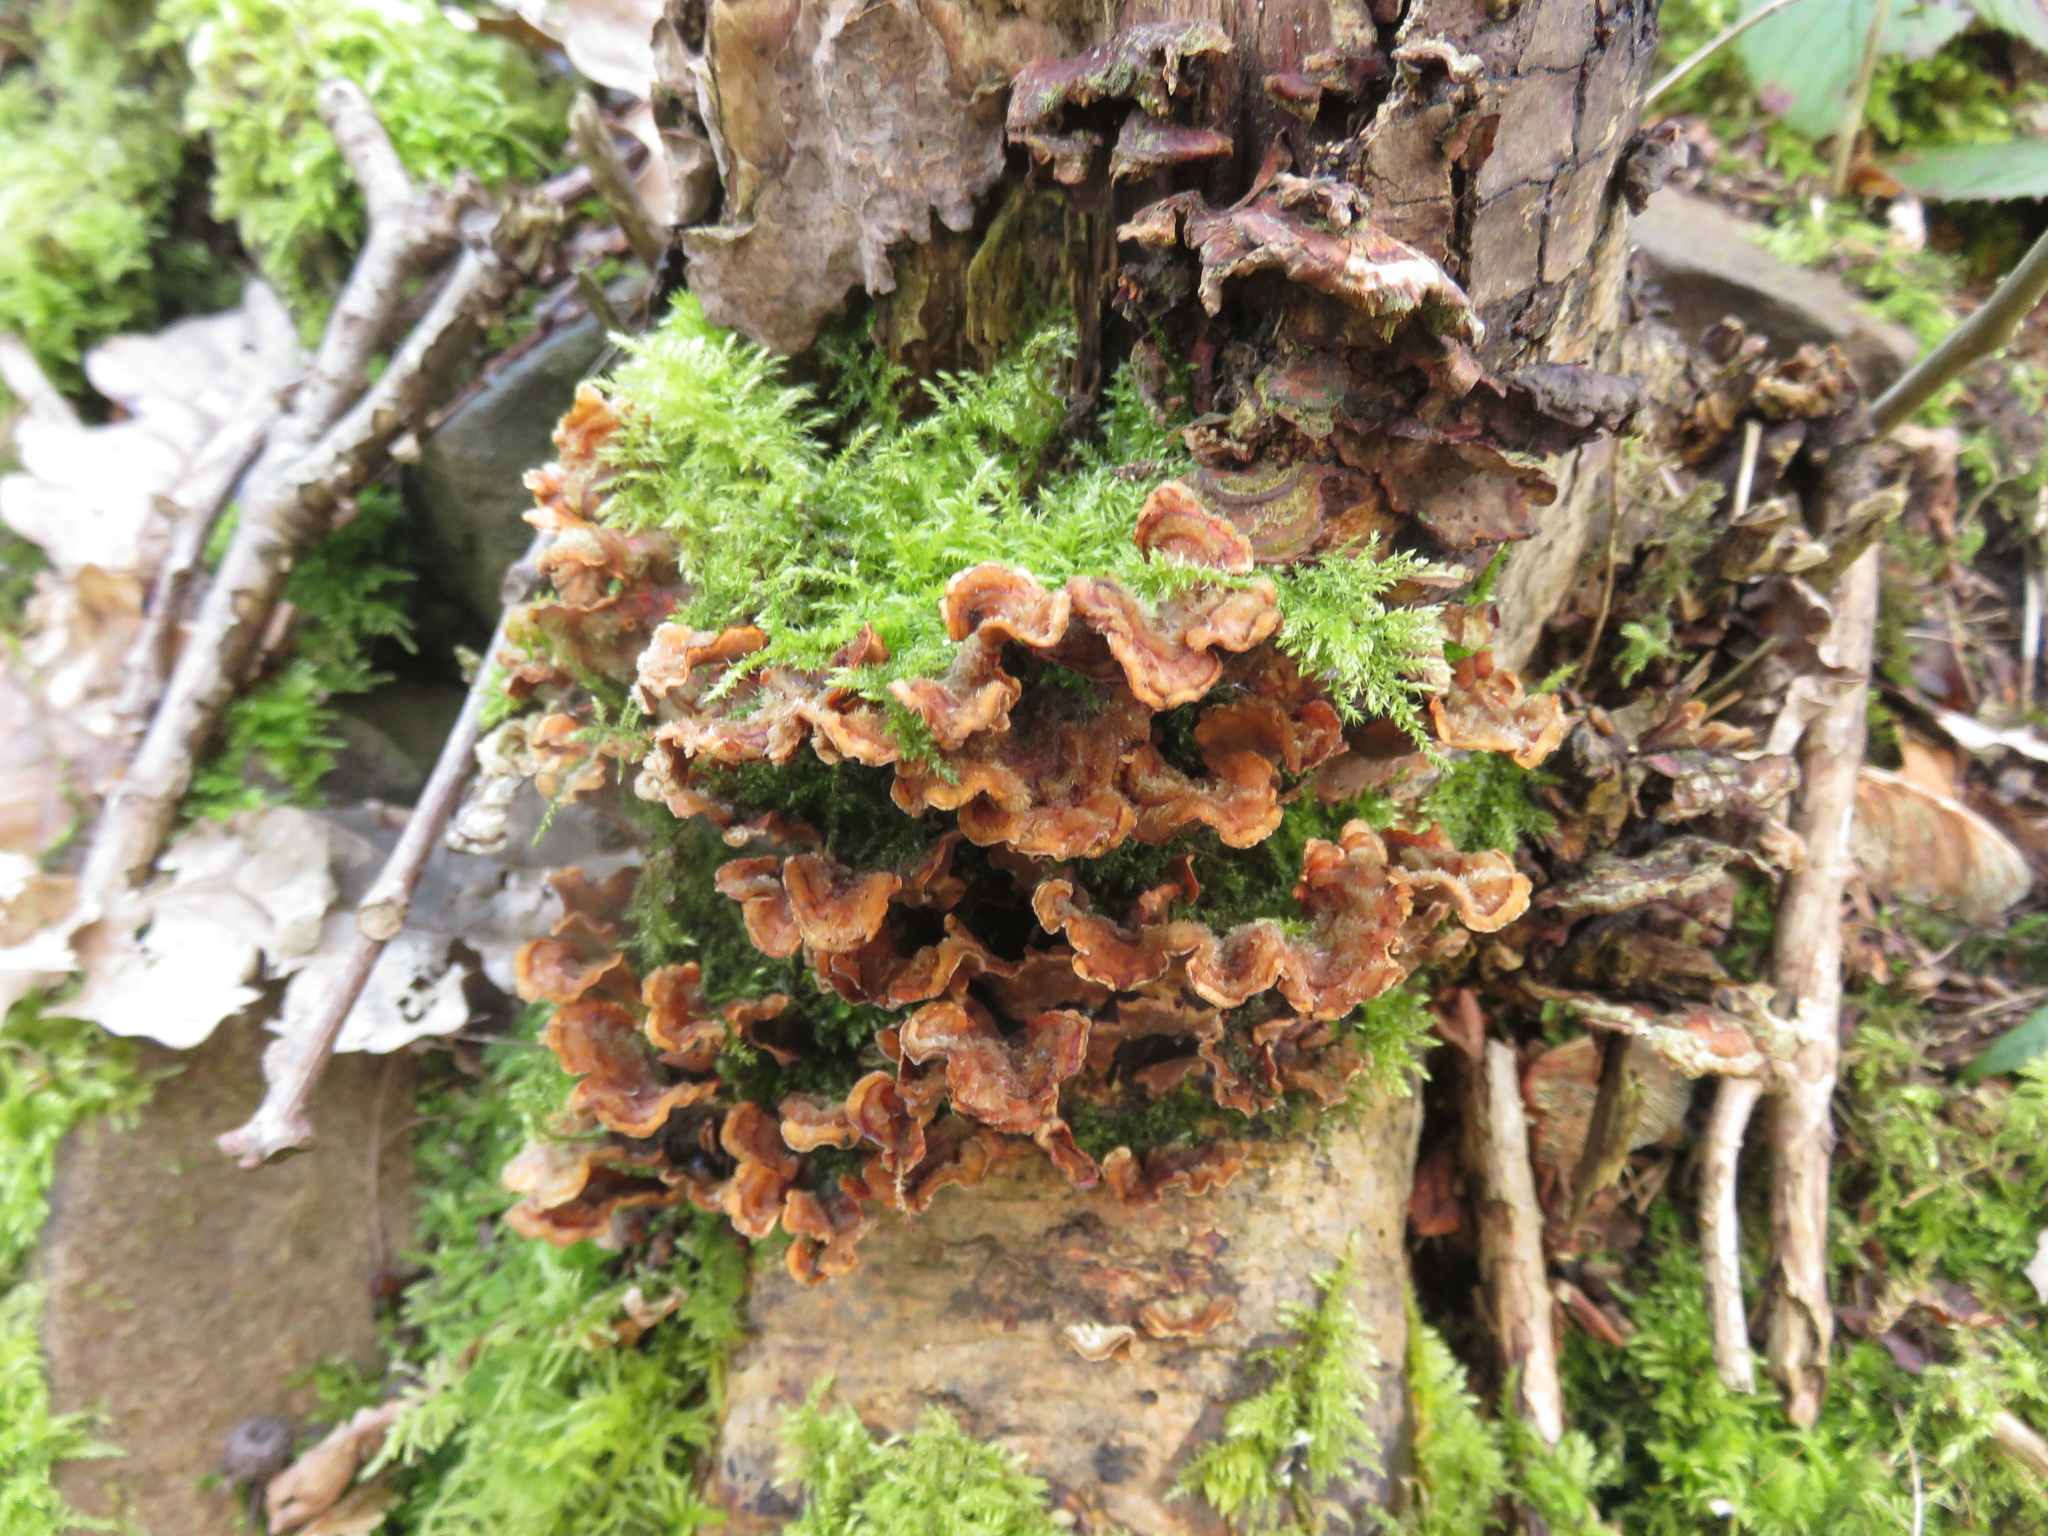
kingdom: Fungi
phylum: Basidiomycota
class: Agaricomycetes
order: Russulales
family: Stereaceae
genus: Stereum
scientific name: Stereum hirsutum
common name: Hairy curtain crust
